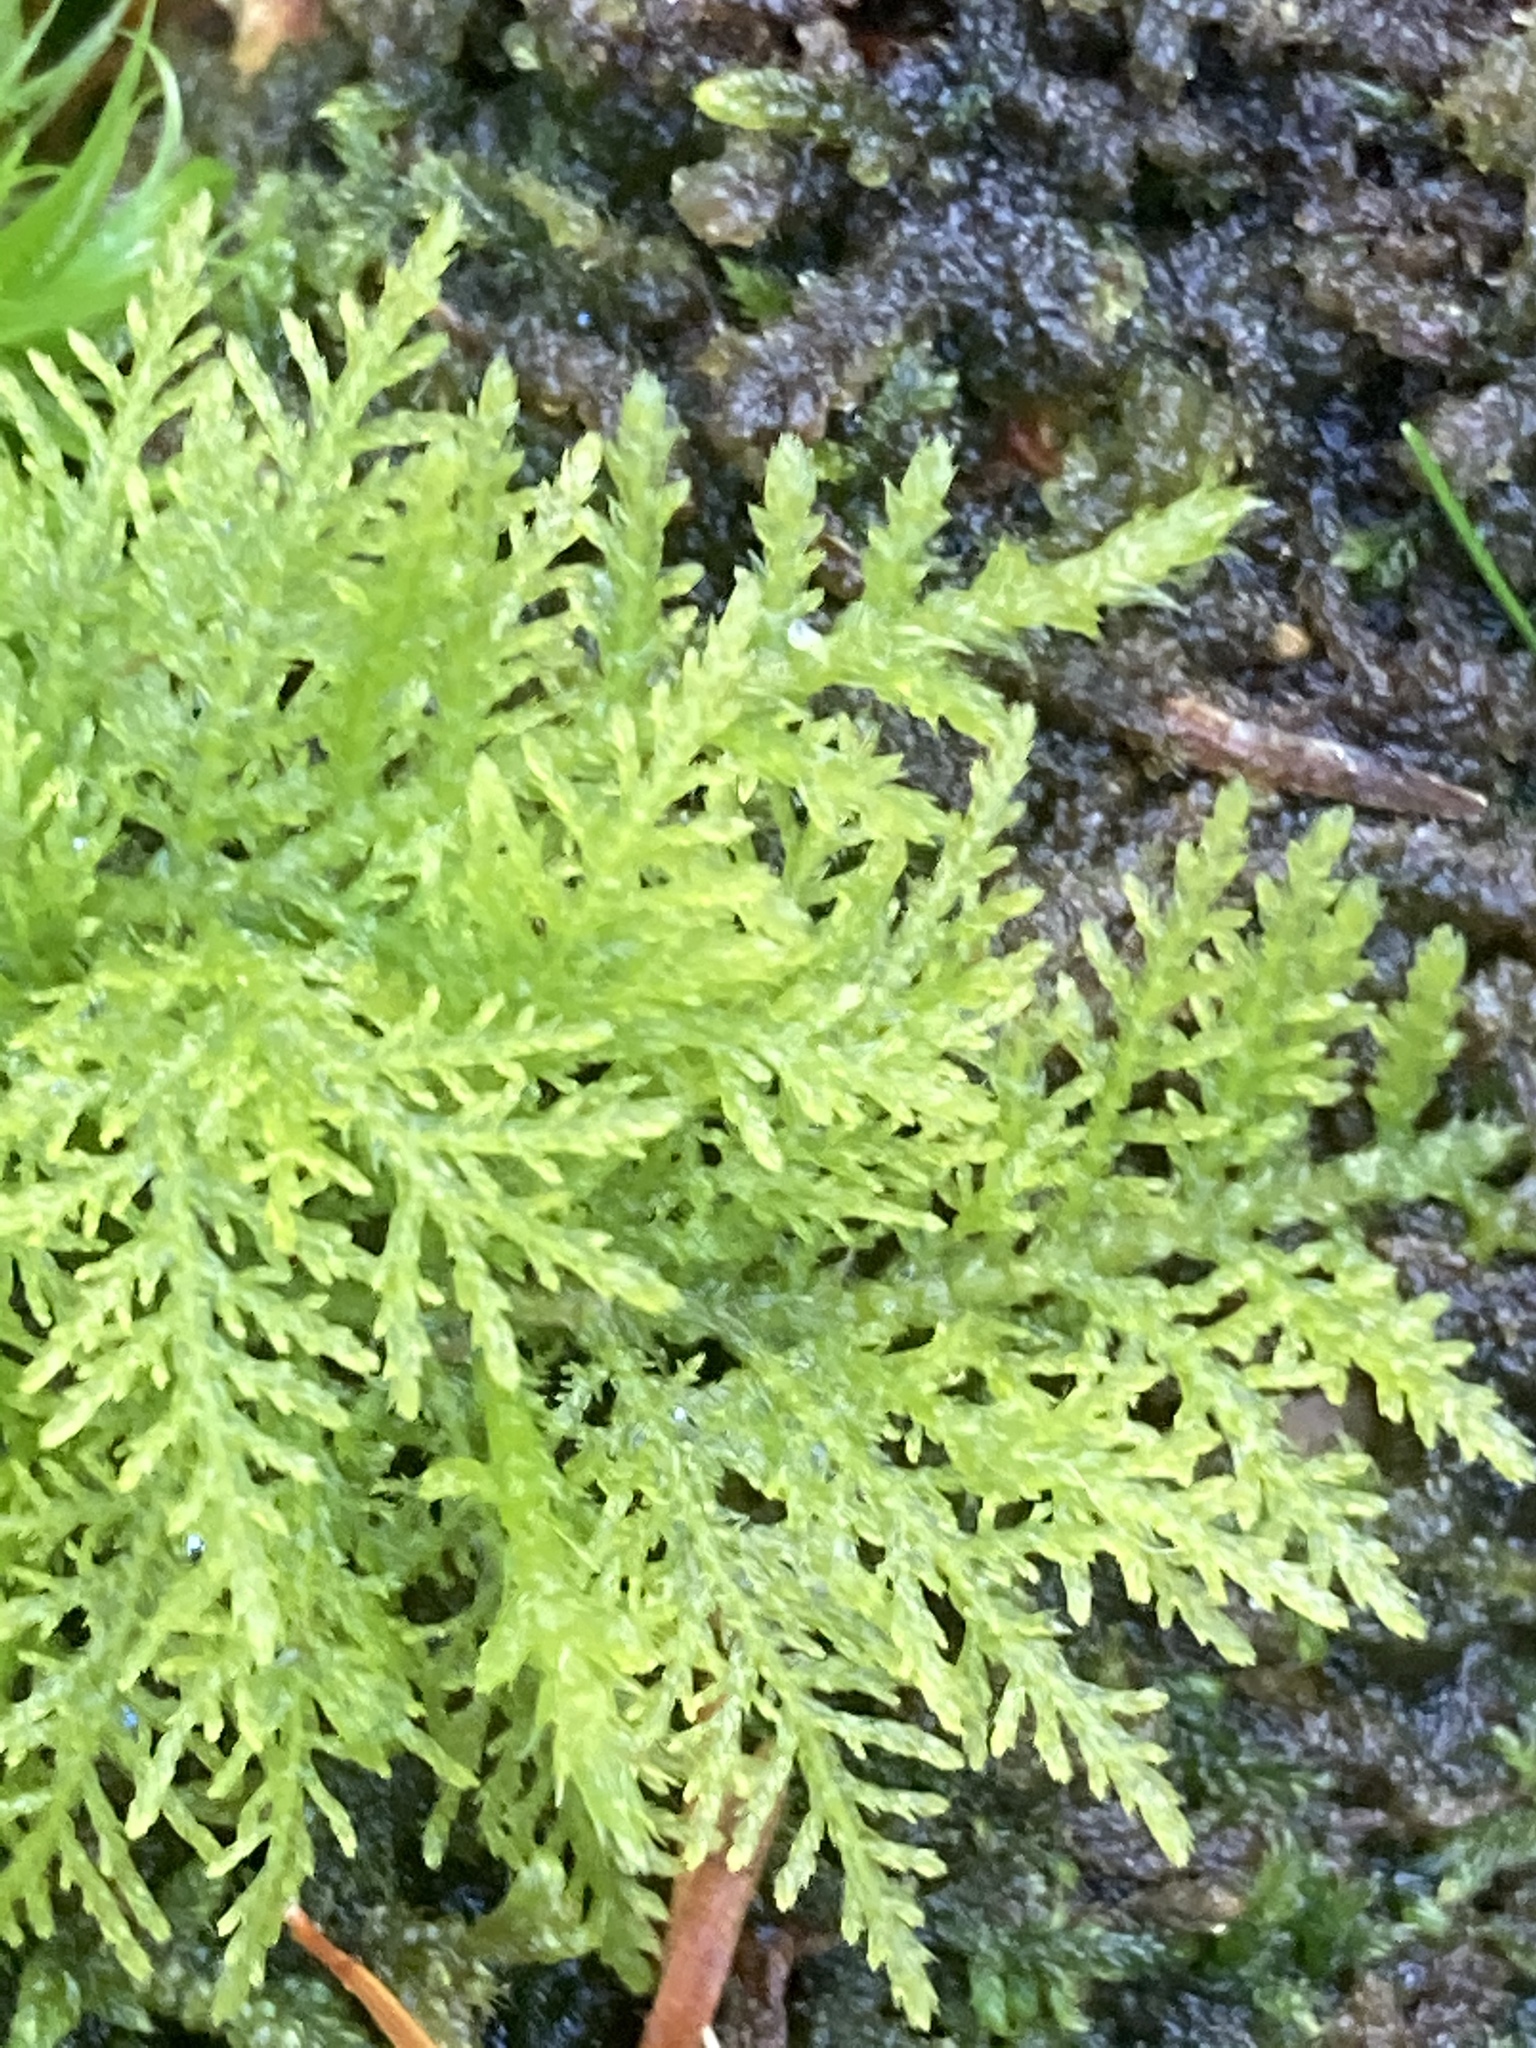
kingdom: Plantae
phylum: Bryophyta
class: Bryopsida
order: Hypnales
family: Thuidiaceae
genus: Thuidium
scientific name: Thuidium tamariscinum
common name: Common tamarisk-moss
